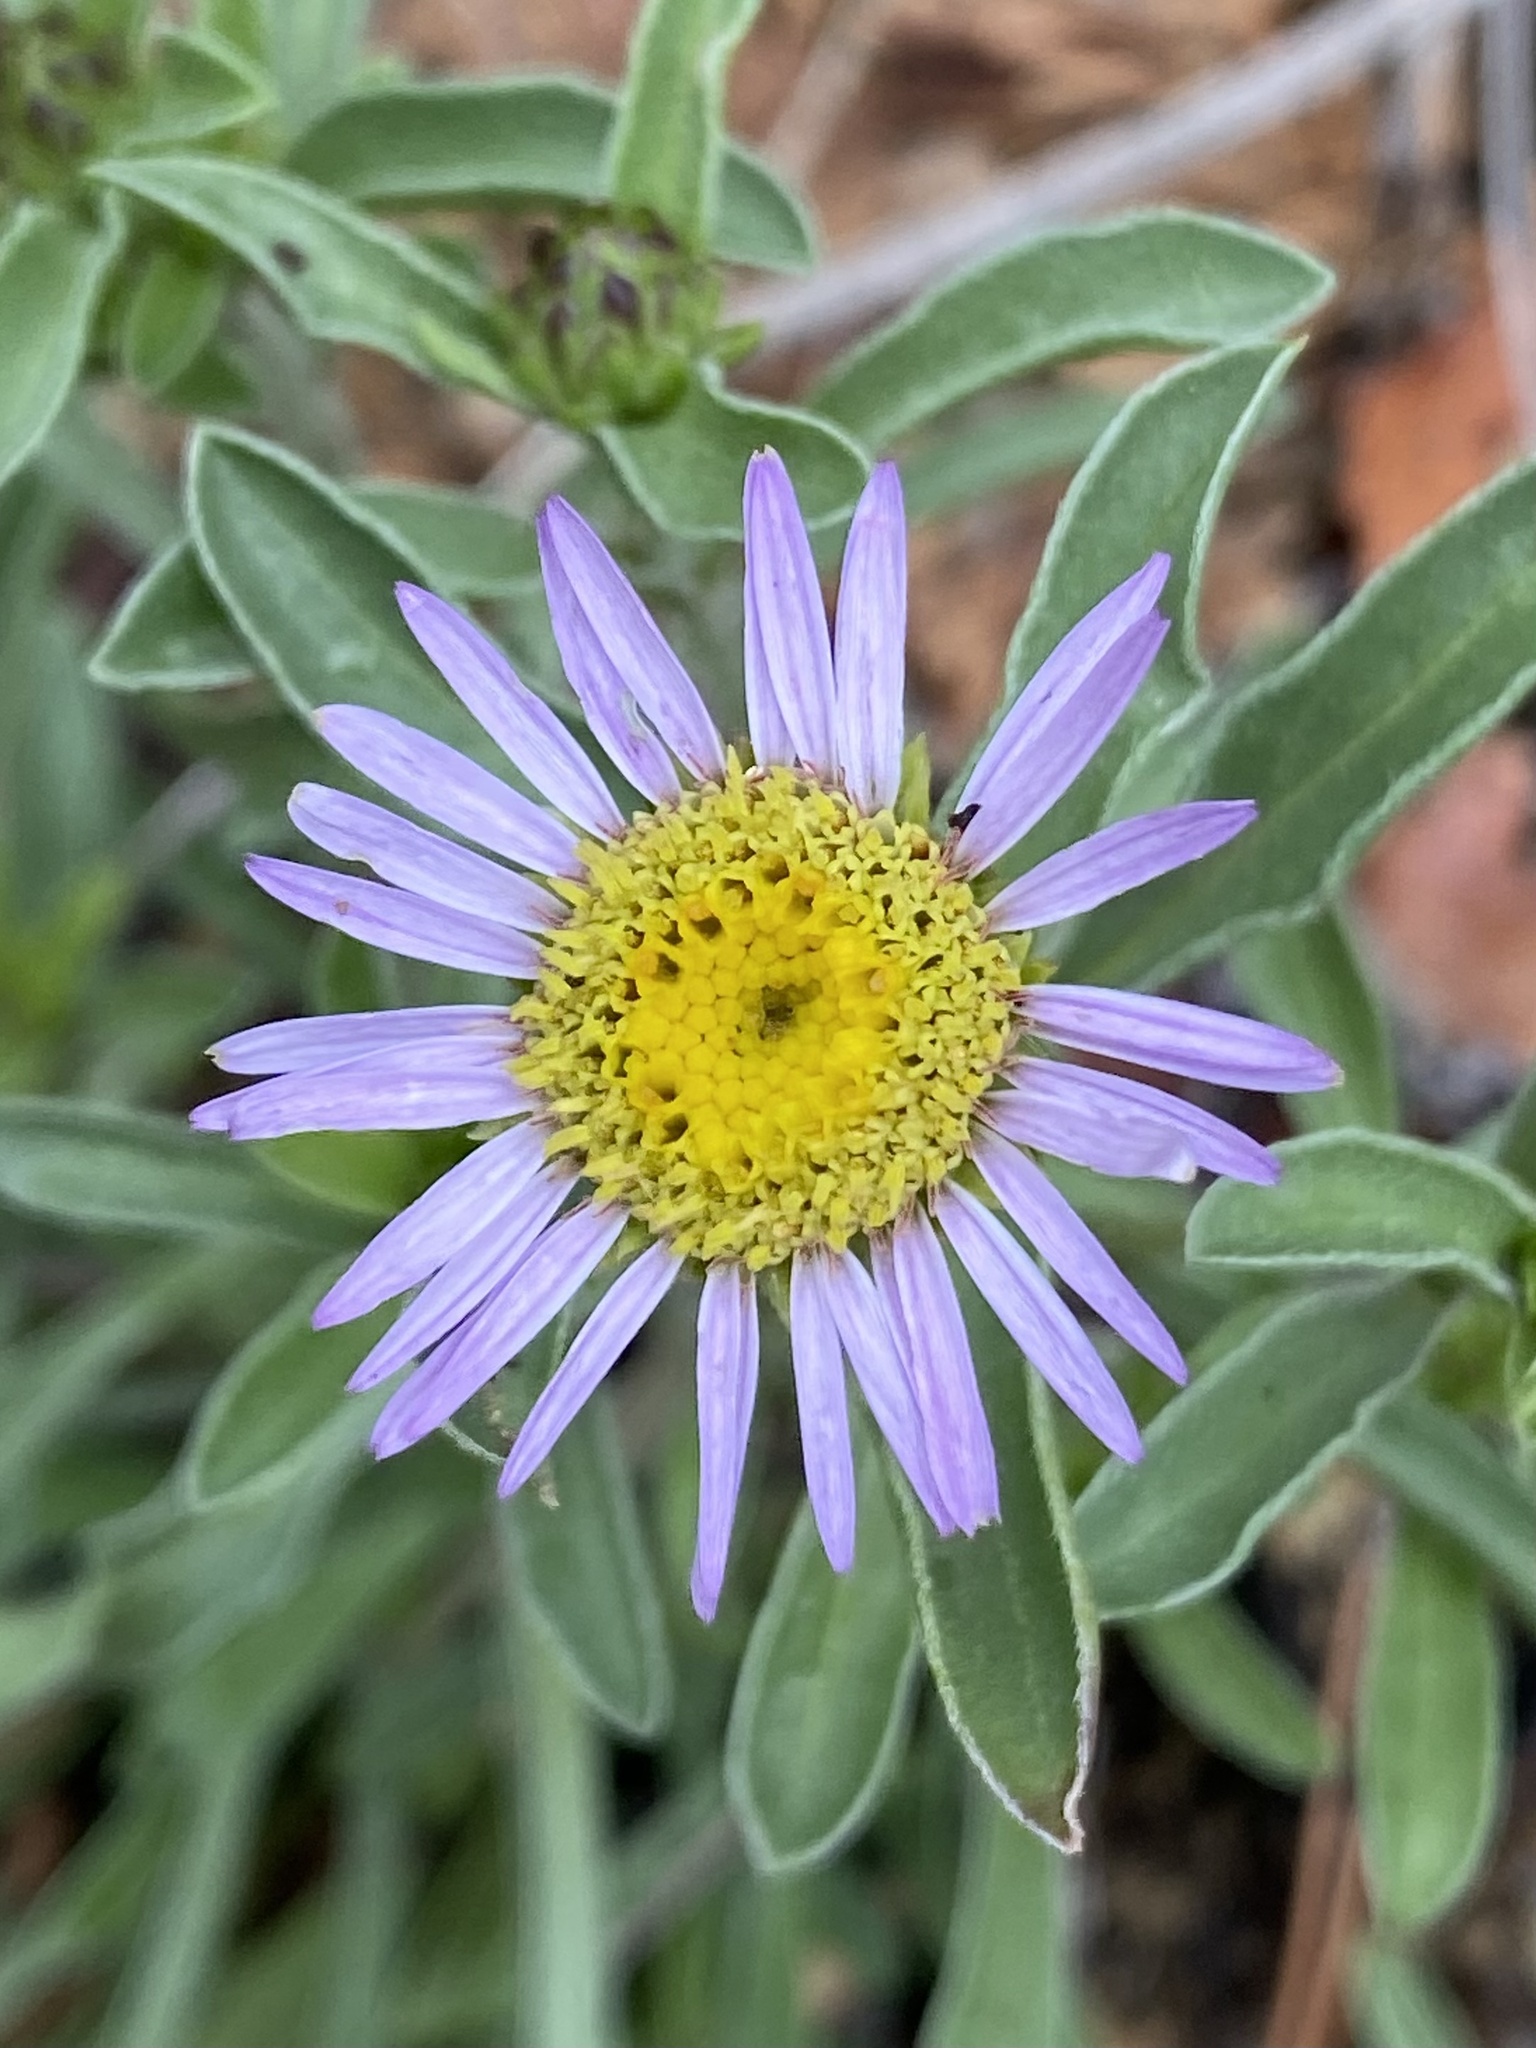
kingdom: Plantae
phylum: Tracheophyta
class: Magnoliopsida
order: Asterales
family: Asteraceae
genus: Townsendia
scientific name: Townsendia eximia
